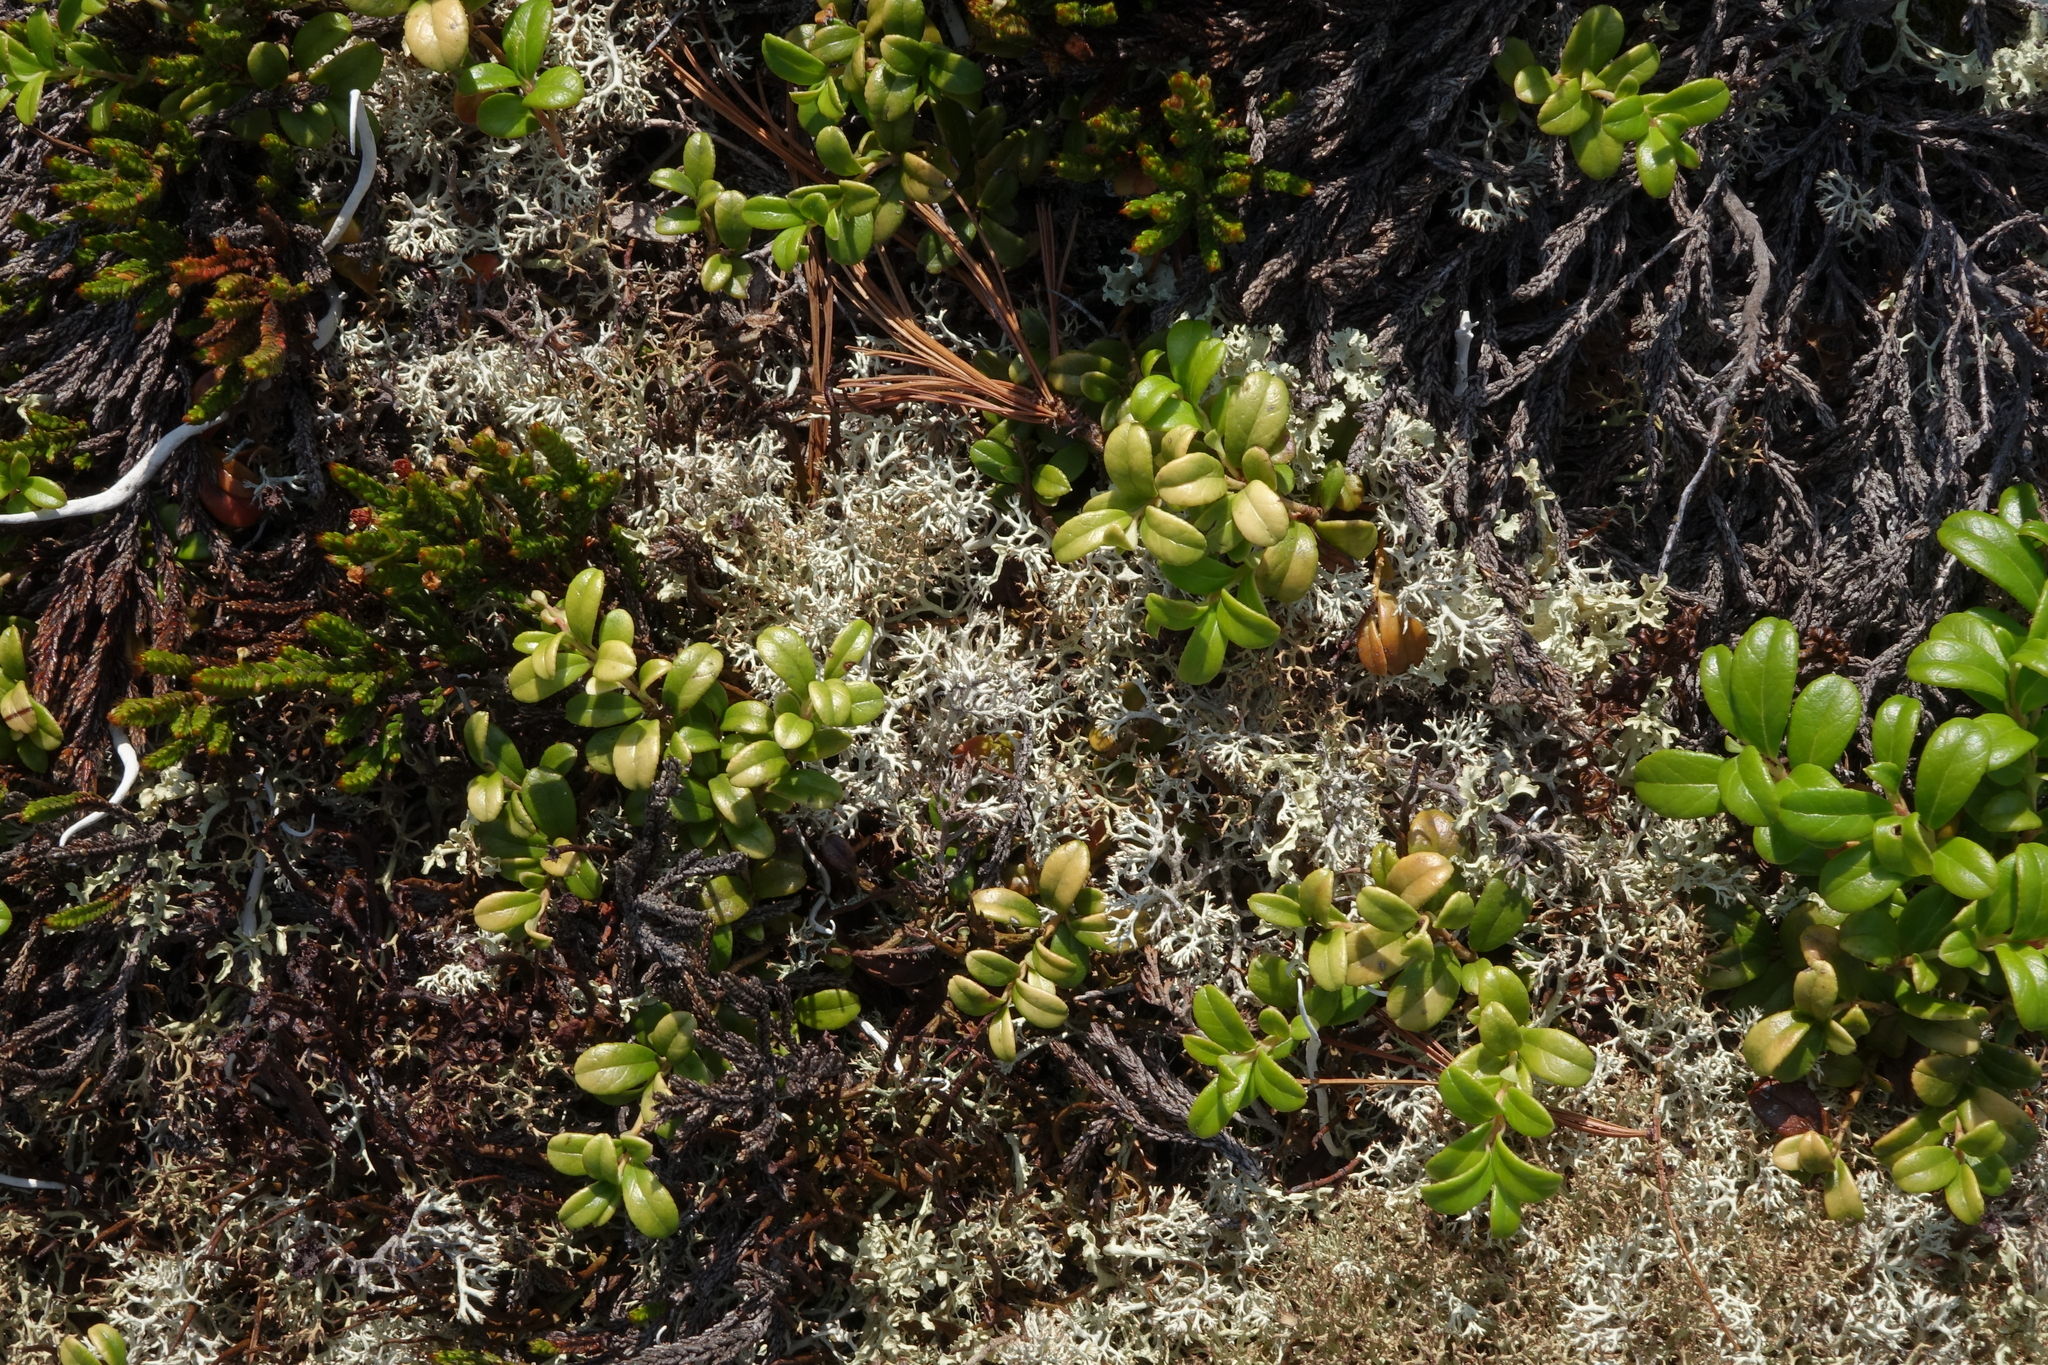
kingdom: Plantae
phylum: Tracheophyta
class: Magnoliopsida
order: Ericales
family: Ericaceae
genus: Vaccinium
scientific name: Vaccinium vitis-idaea
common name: Cowberry
